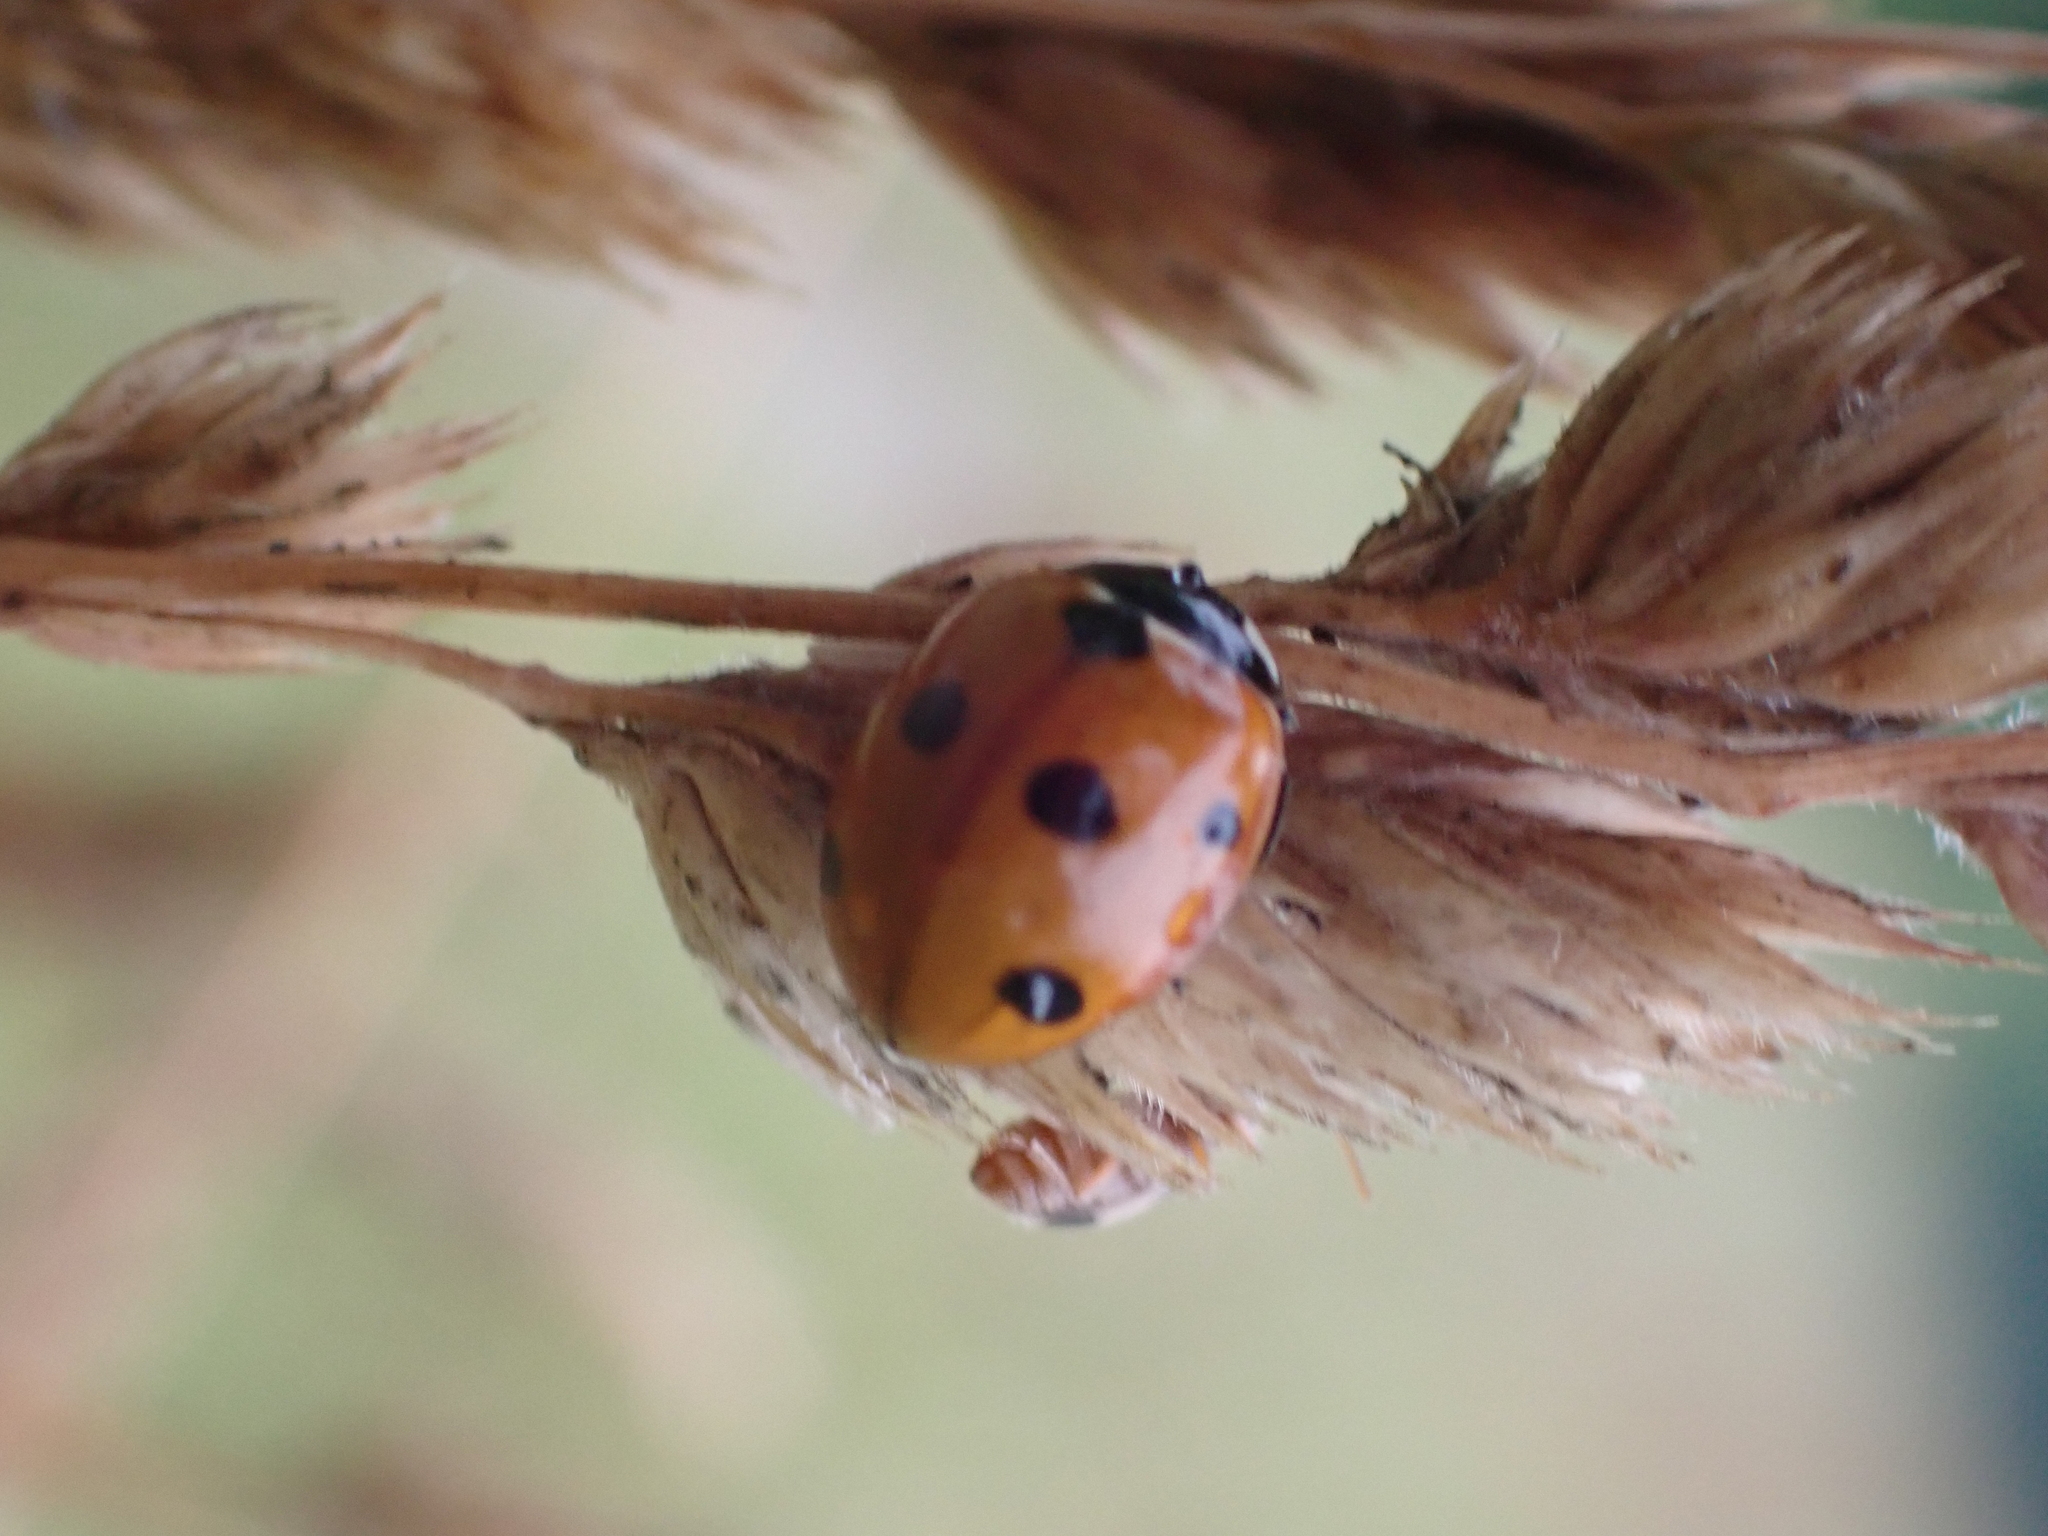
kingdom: Animalia
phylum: Arthropoda
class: Insecta
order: Coleoptera
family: Coccinellidae
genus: Coccinella
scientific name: Coccinella septempunctata
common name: Sevenspotted lady beetle
